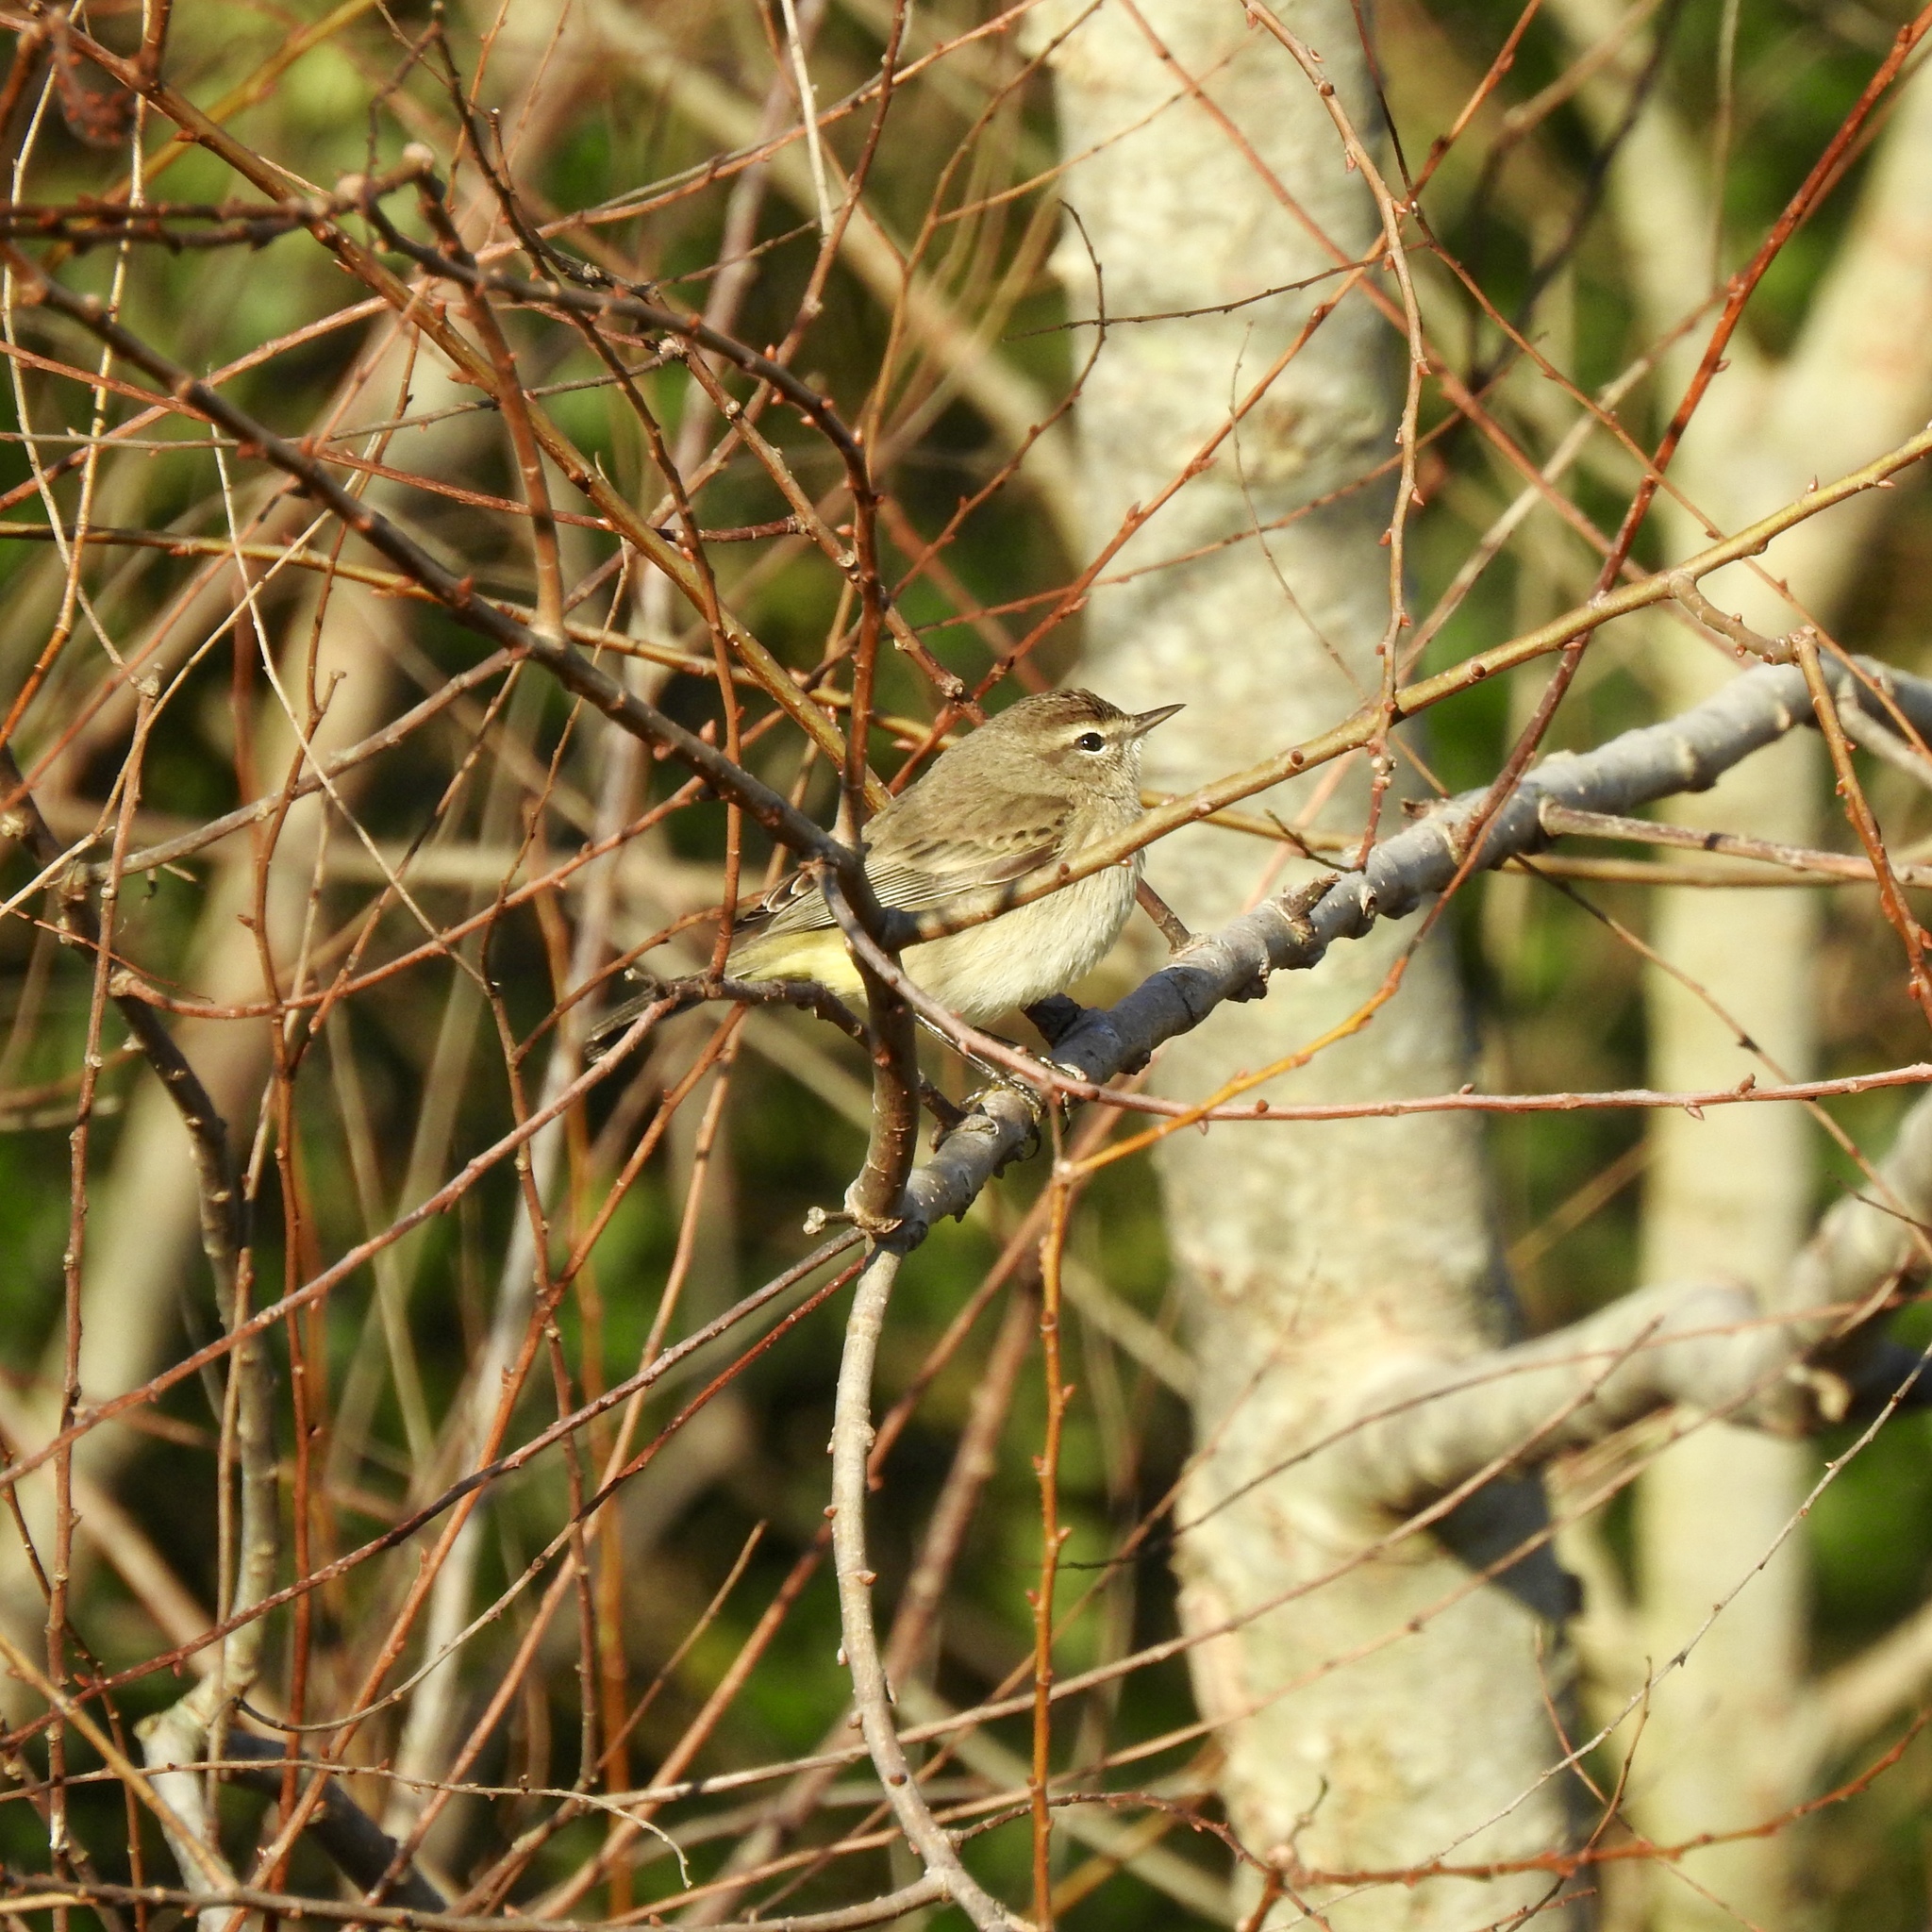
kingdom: Animalia
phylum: Chordata
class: Aves
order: Passeriformes
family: Parulidae
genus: Setophaga
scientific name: Setophaga palmarum
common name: Palm warbler
